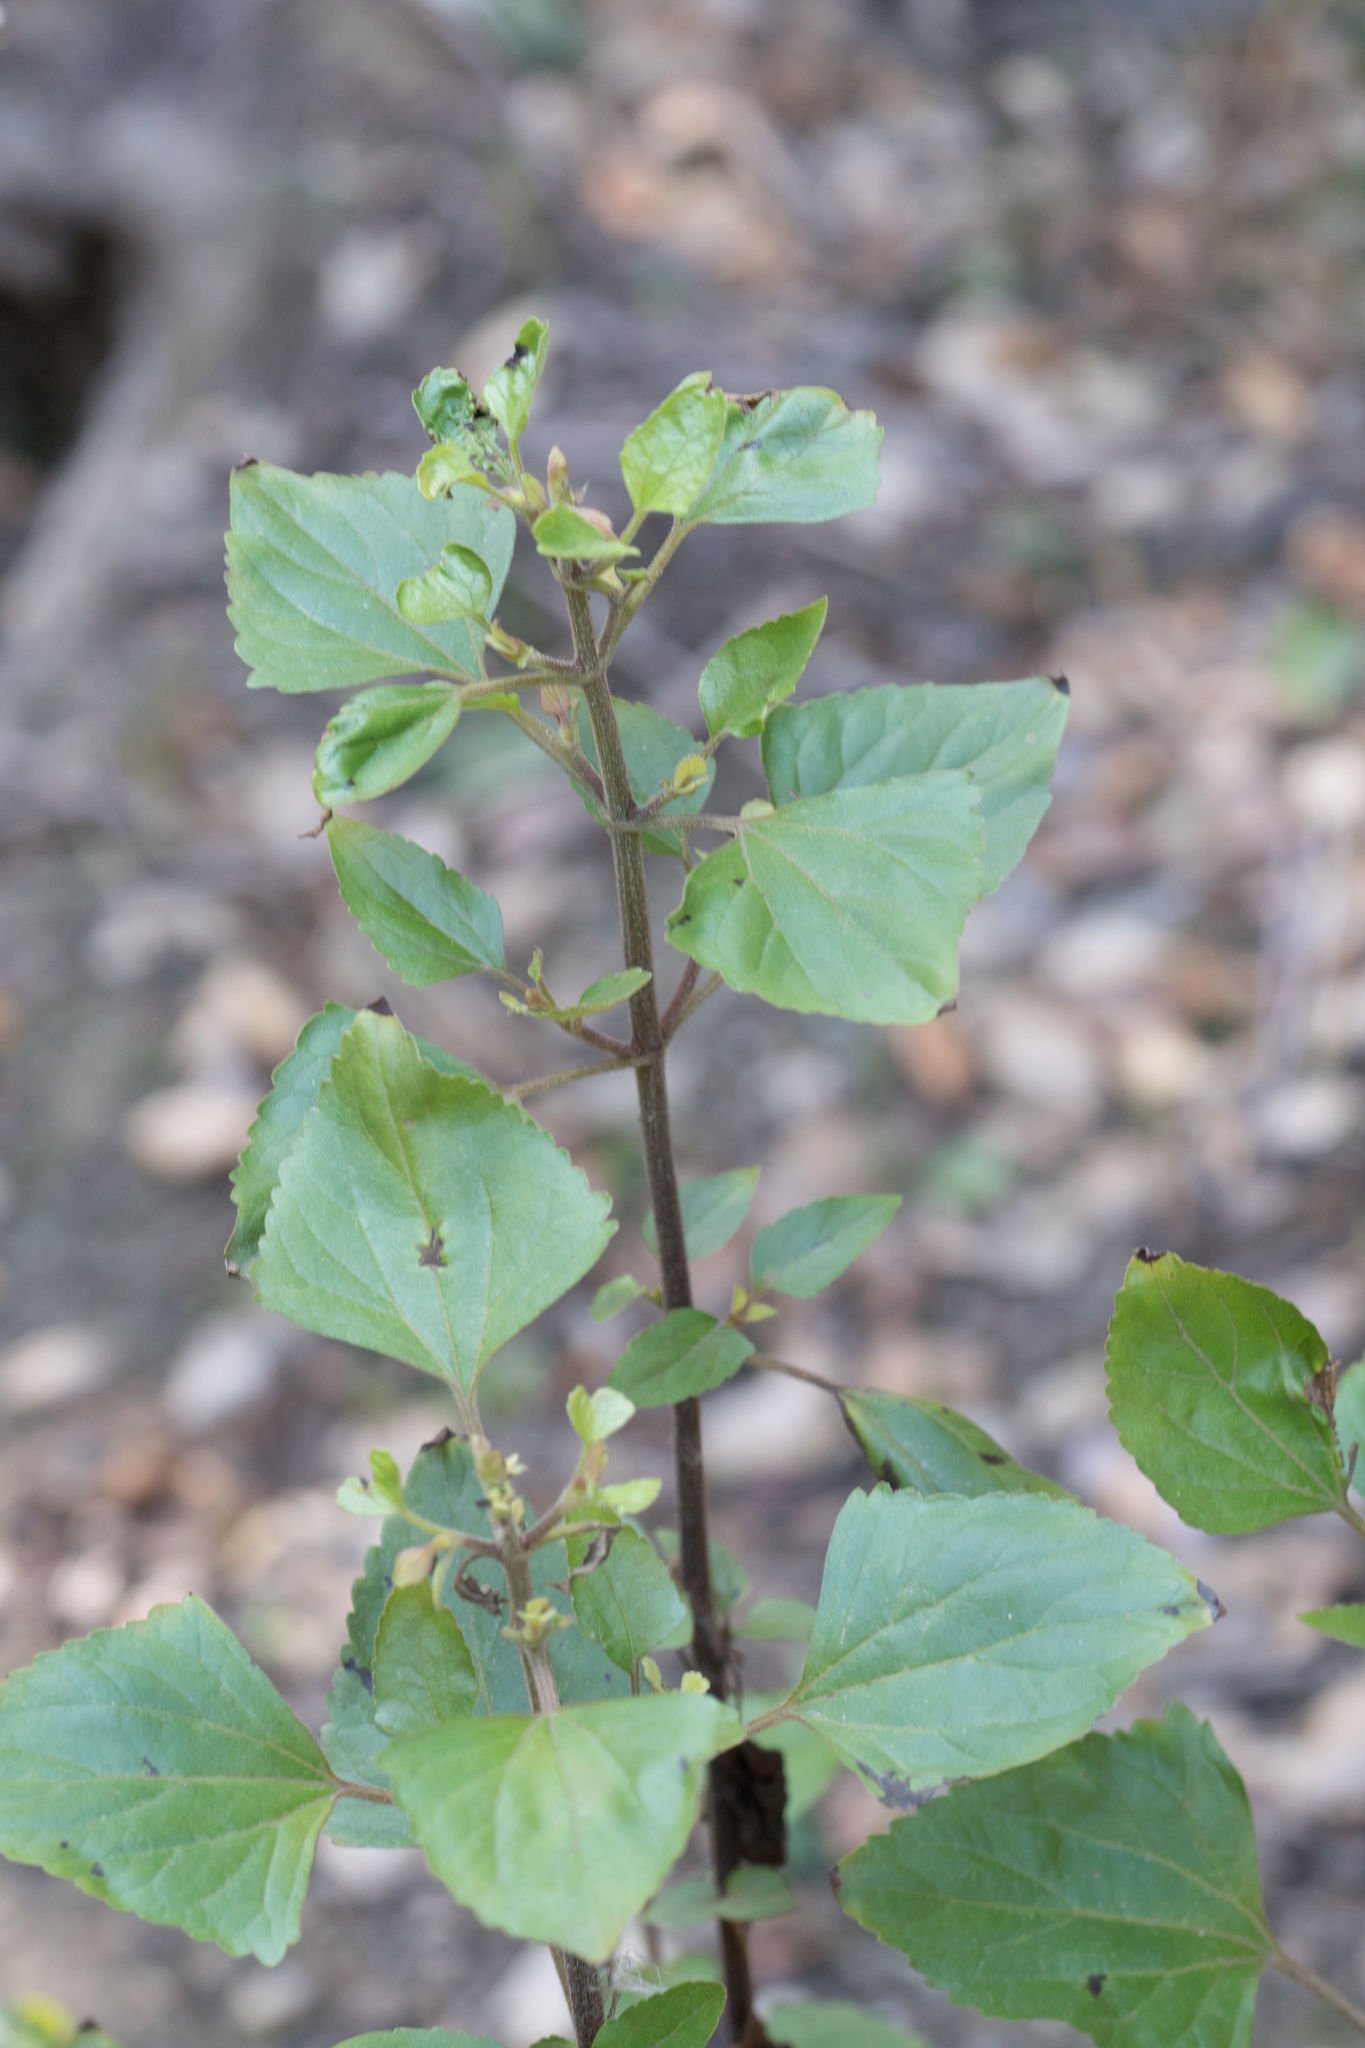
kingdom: Plantae
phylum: Tracheophyta
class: Magnoliopsida
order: Asterales
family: Asteraceae
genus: Ageratina
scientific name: Ageratina adenophora
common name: Sticky snakeroot
